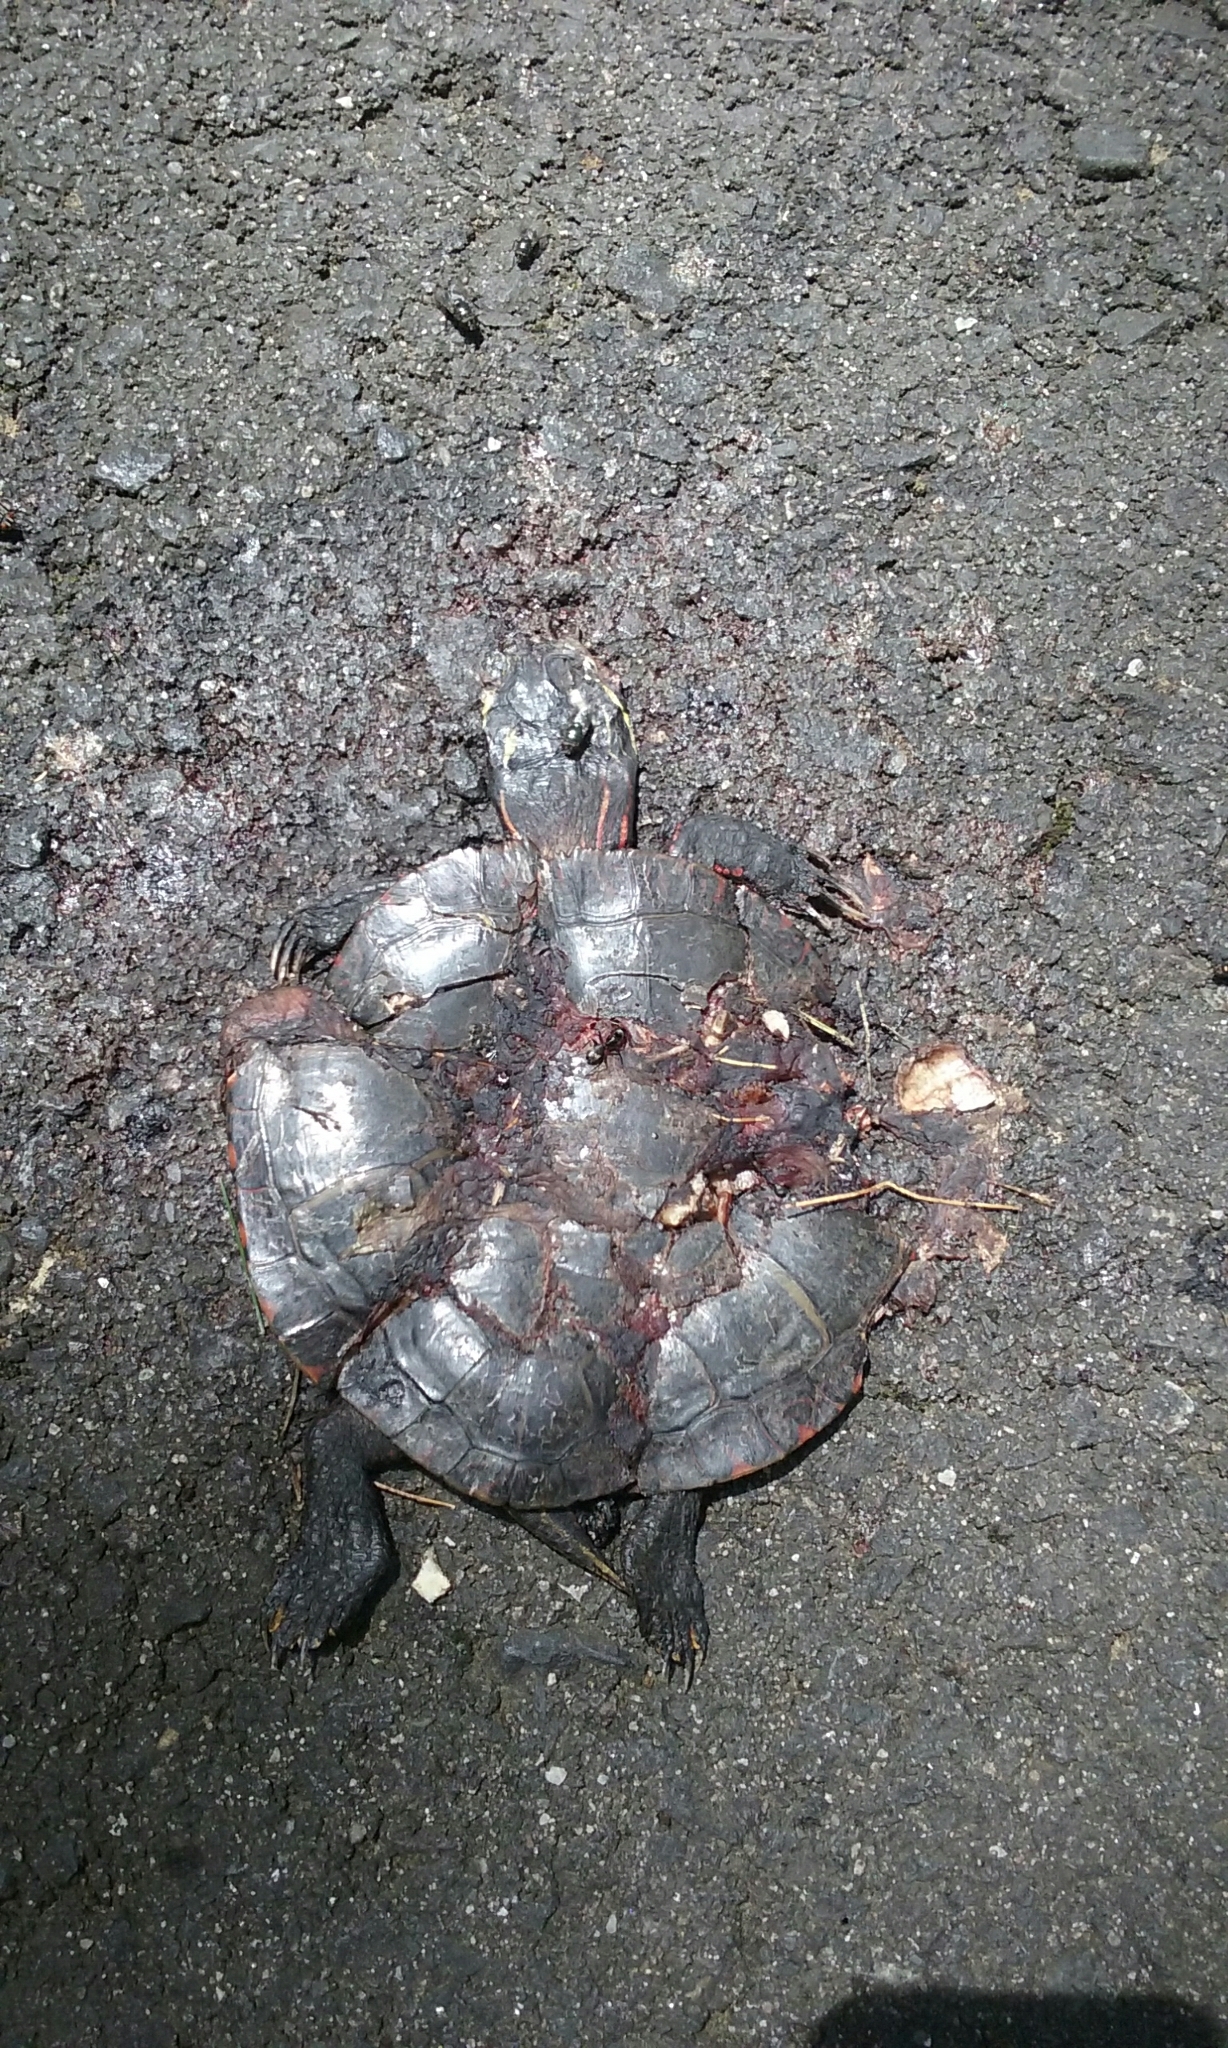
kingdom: Animalia
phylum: Chordata
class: Testudines
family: Emydidae
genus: Chrysemys
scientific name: Chrysemys picta
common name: Painted turtle
